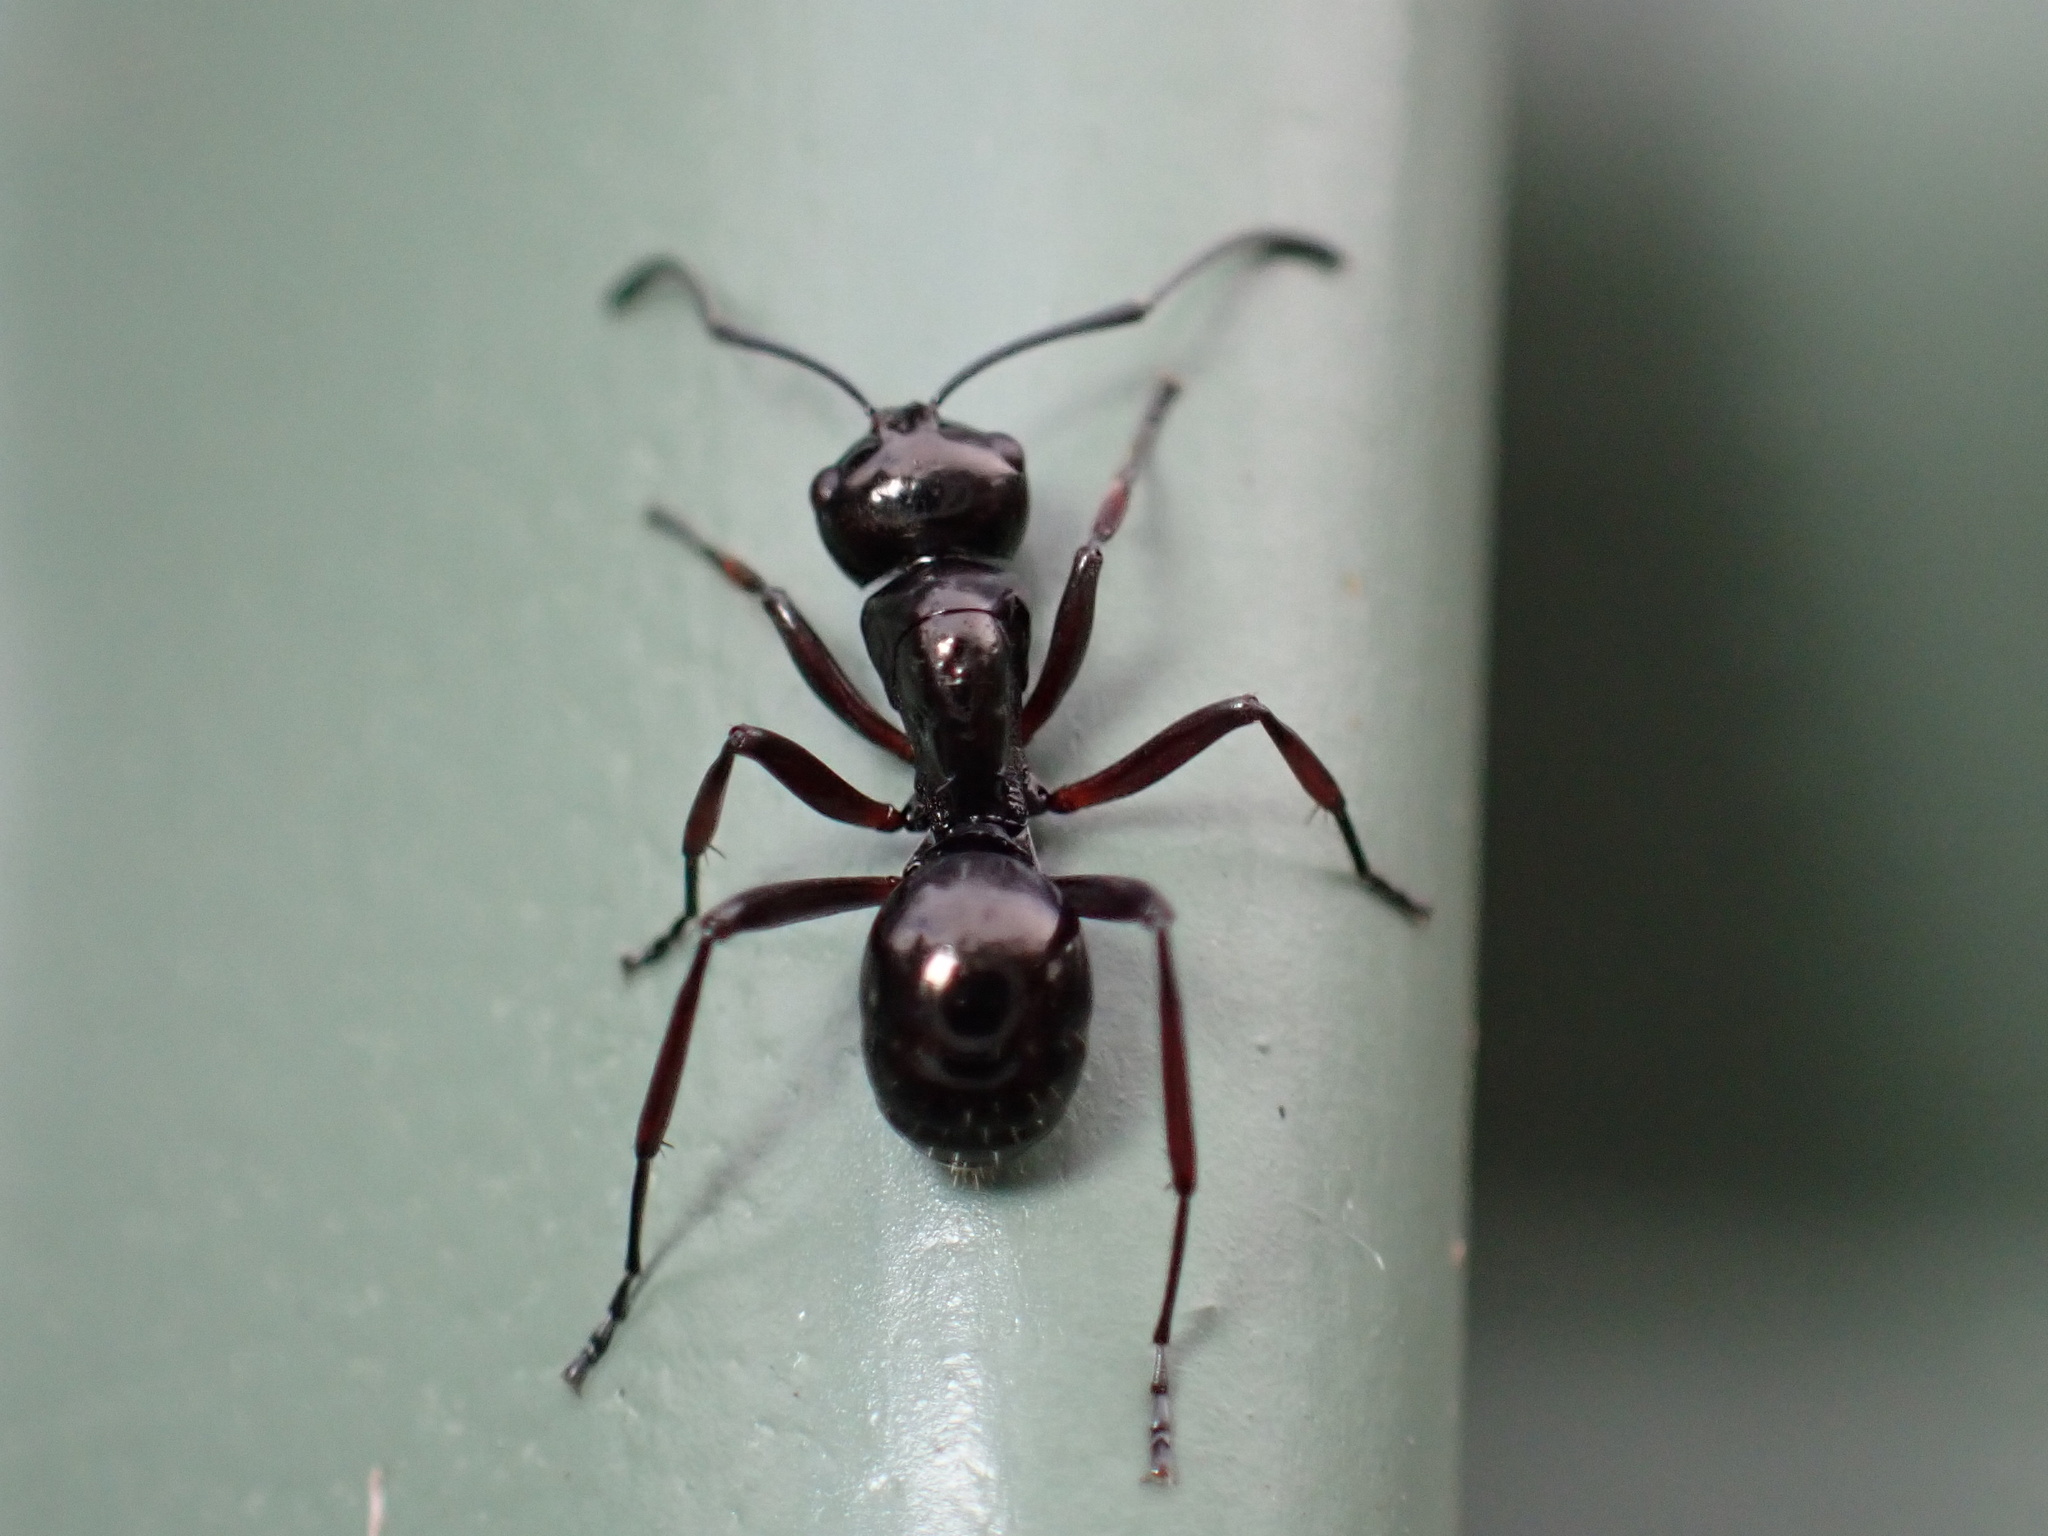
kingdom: Animalia
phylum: Arthropoda
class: Insecta
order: Hymenoptera
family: Formicidae
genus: Polyrhachis
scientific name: Polyrhachis australis
